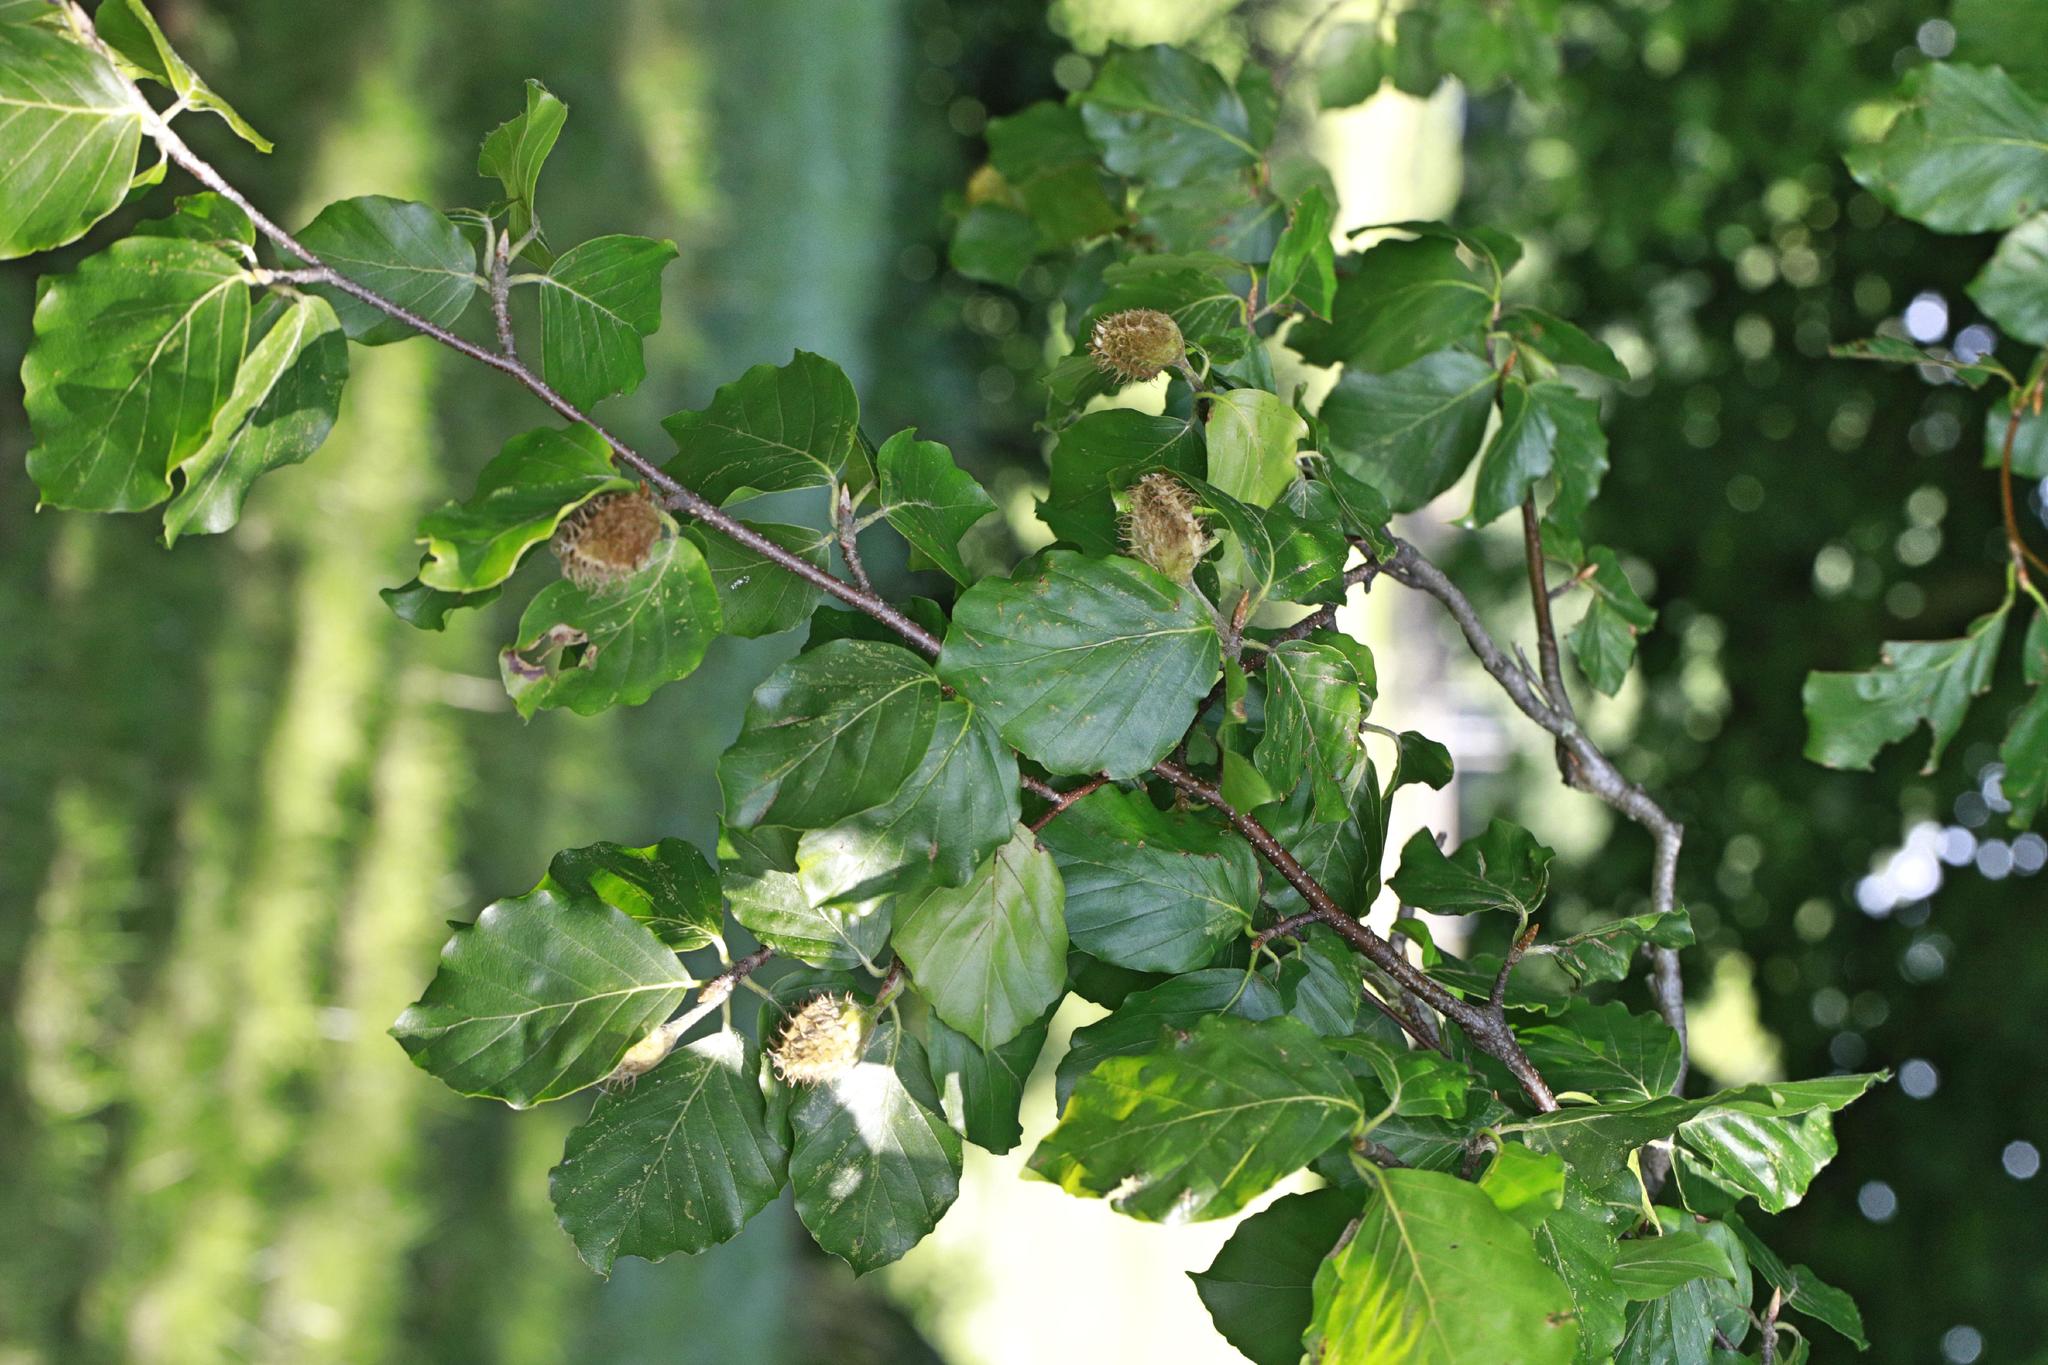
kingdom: Plantae
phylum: Tracheophyta
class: Magnoliopsida
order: Fagales
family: Fagaceae
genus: Fagus
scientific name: Fagus sylvatica
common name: Beech
